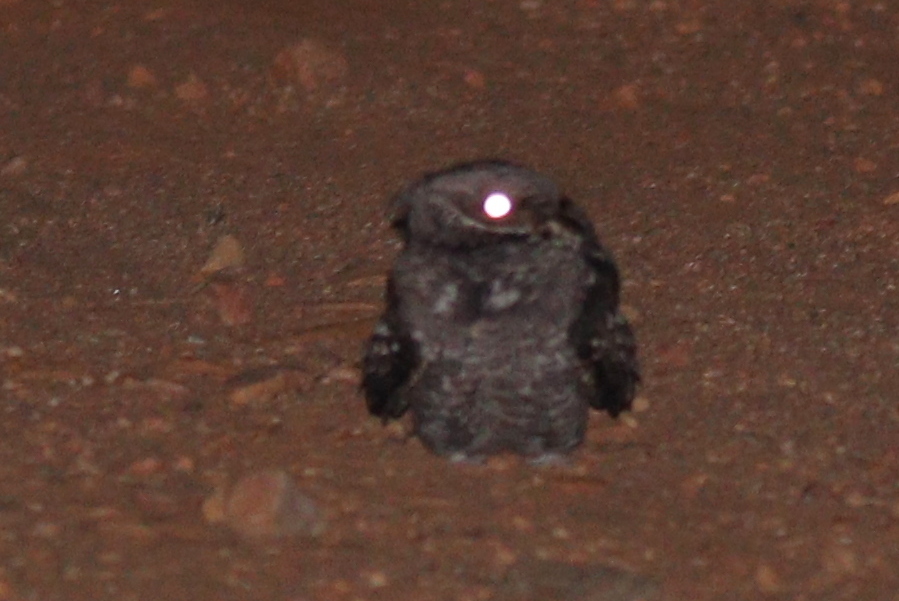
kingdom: Animalia
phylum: Chordata
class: Aves
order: Caprimulgiformes
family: Caprimulgidae
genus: Caprimulgus
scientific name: Caprimulgus ruficollis
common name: Red-necked nightjar
